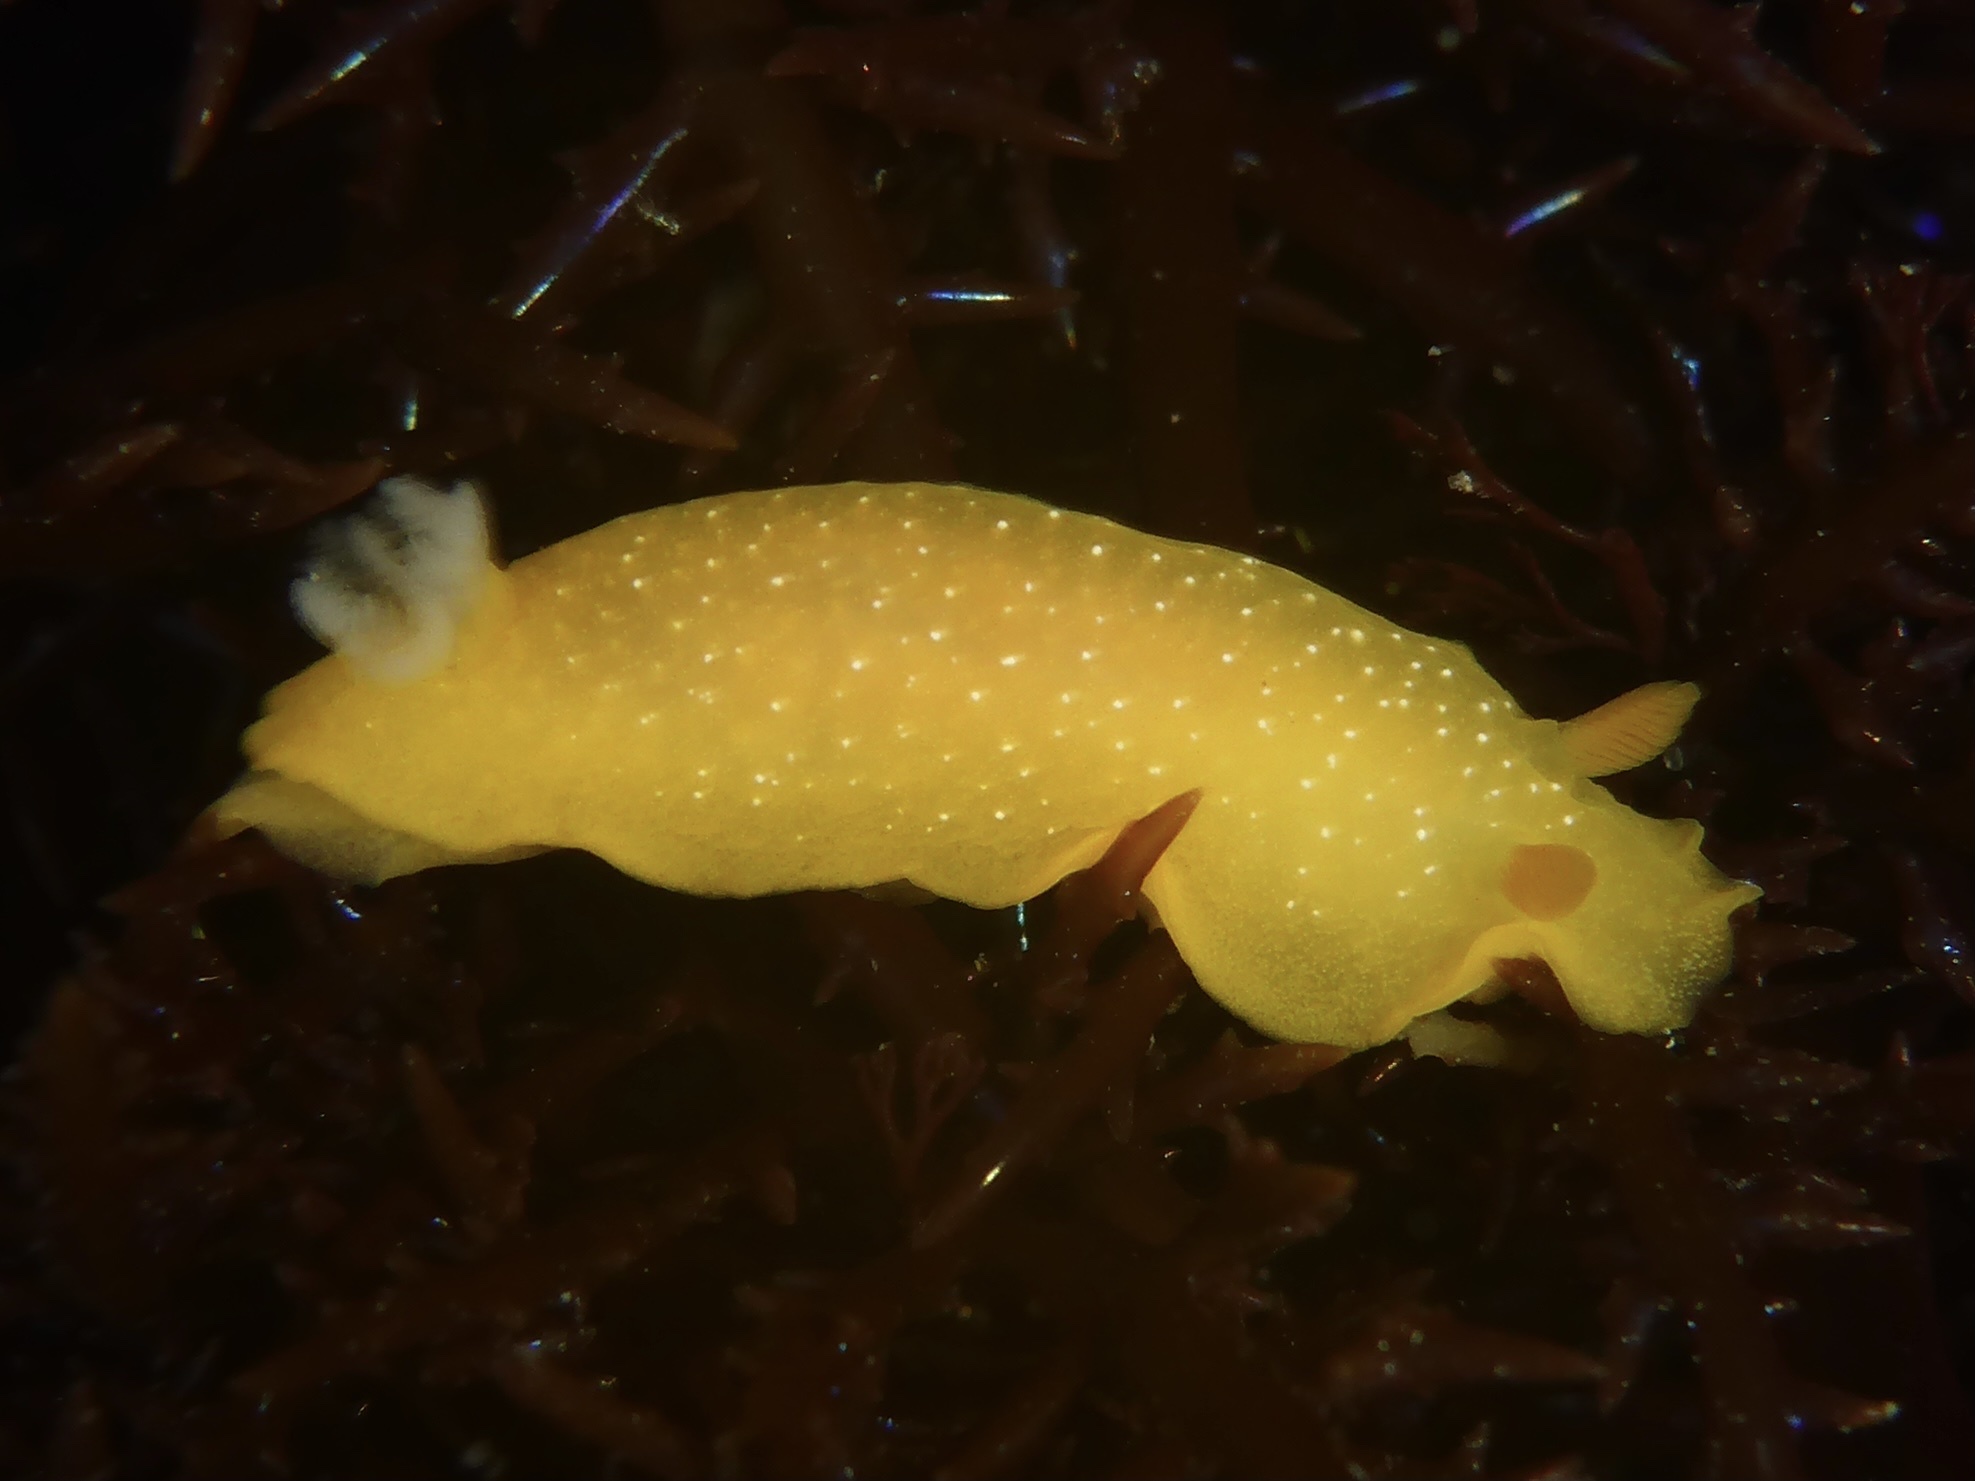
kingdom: Animalia
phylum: Mollusca
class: Gastropoda
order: Nudibranchia
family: Dendrodorididae
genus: Doriopsilla
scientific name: Doriopsilla fulva
